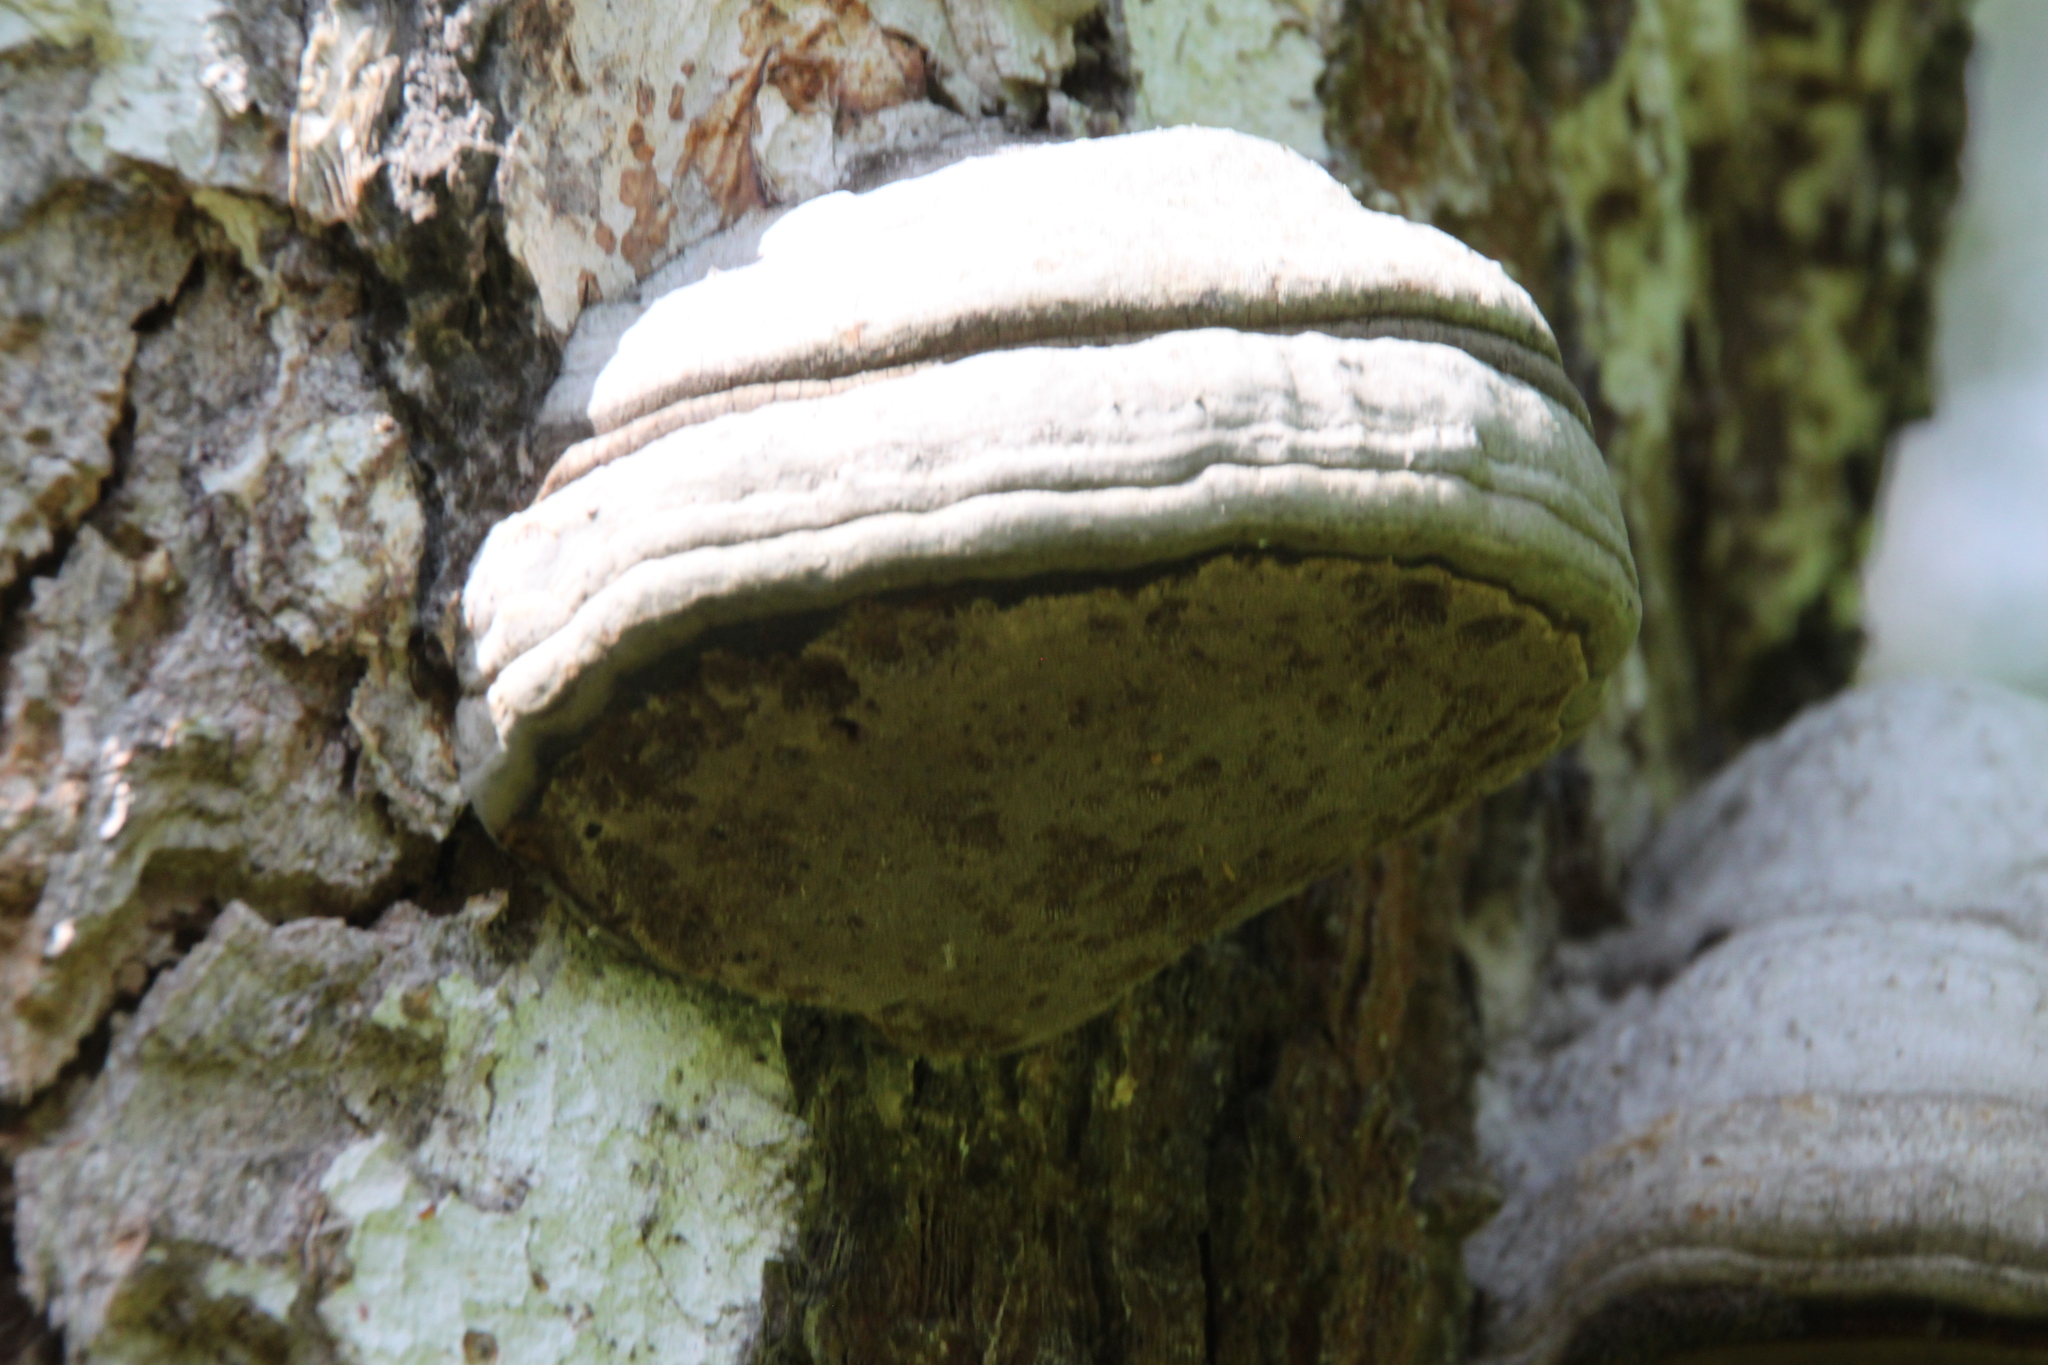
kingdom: Fungi
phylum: Basidiomycota
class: Agaricomycetes
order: Polyporales
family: Polyporaceae
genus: Fomes
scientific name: Fomes fomentarius
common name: Hoof fungus
